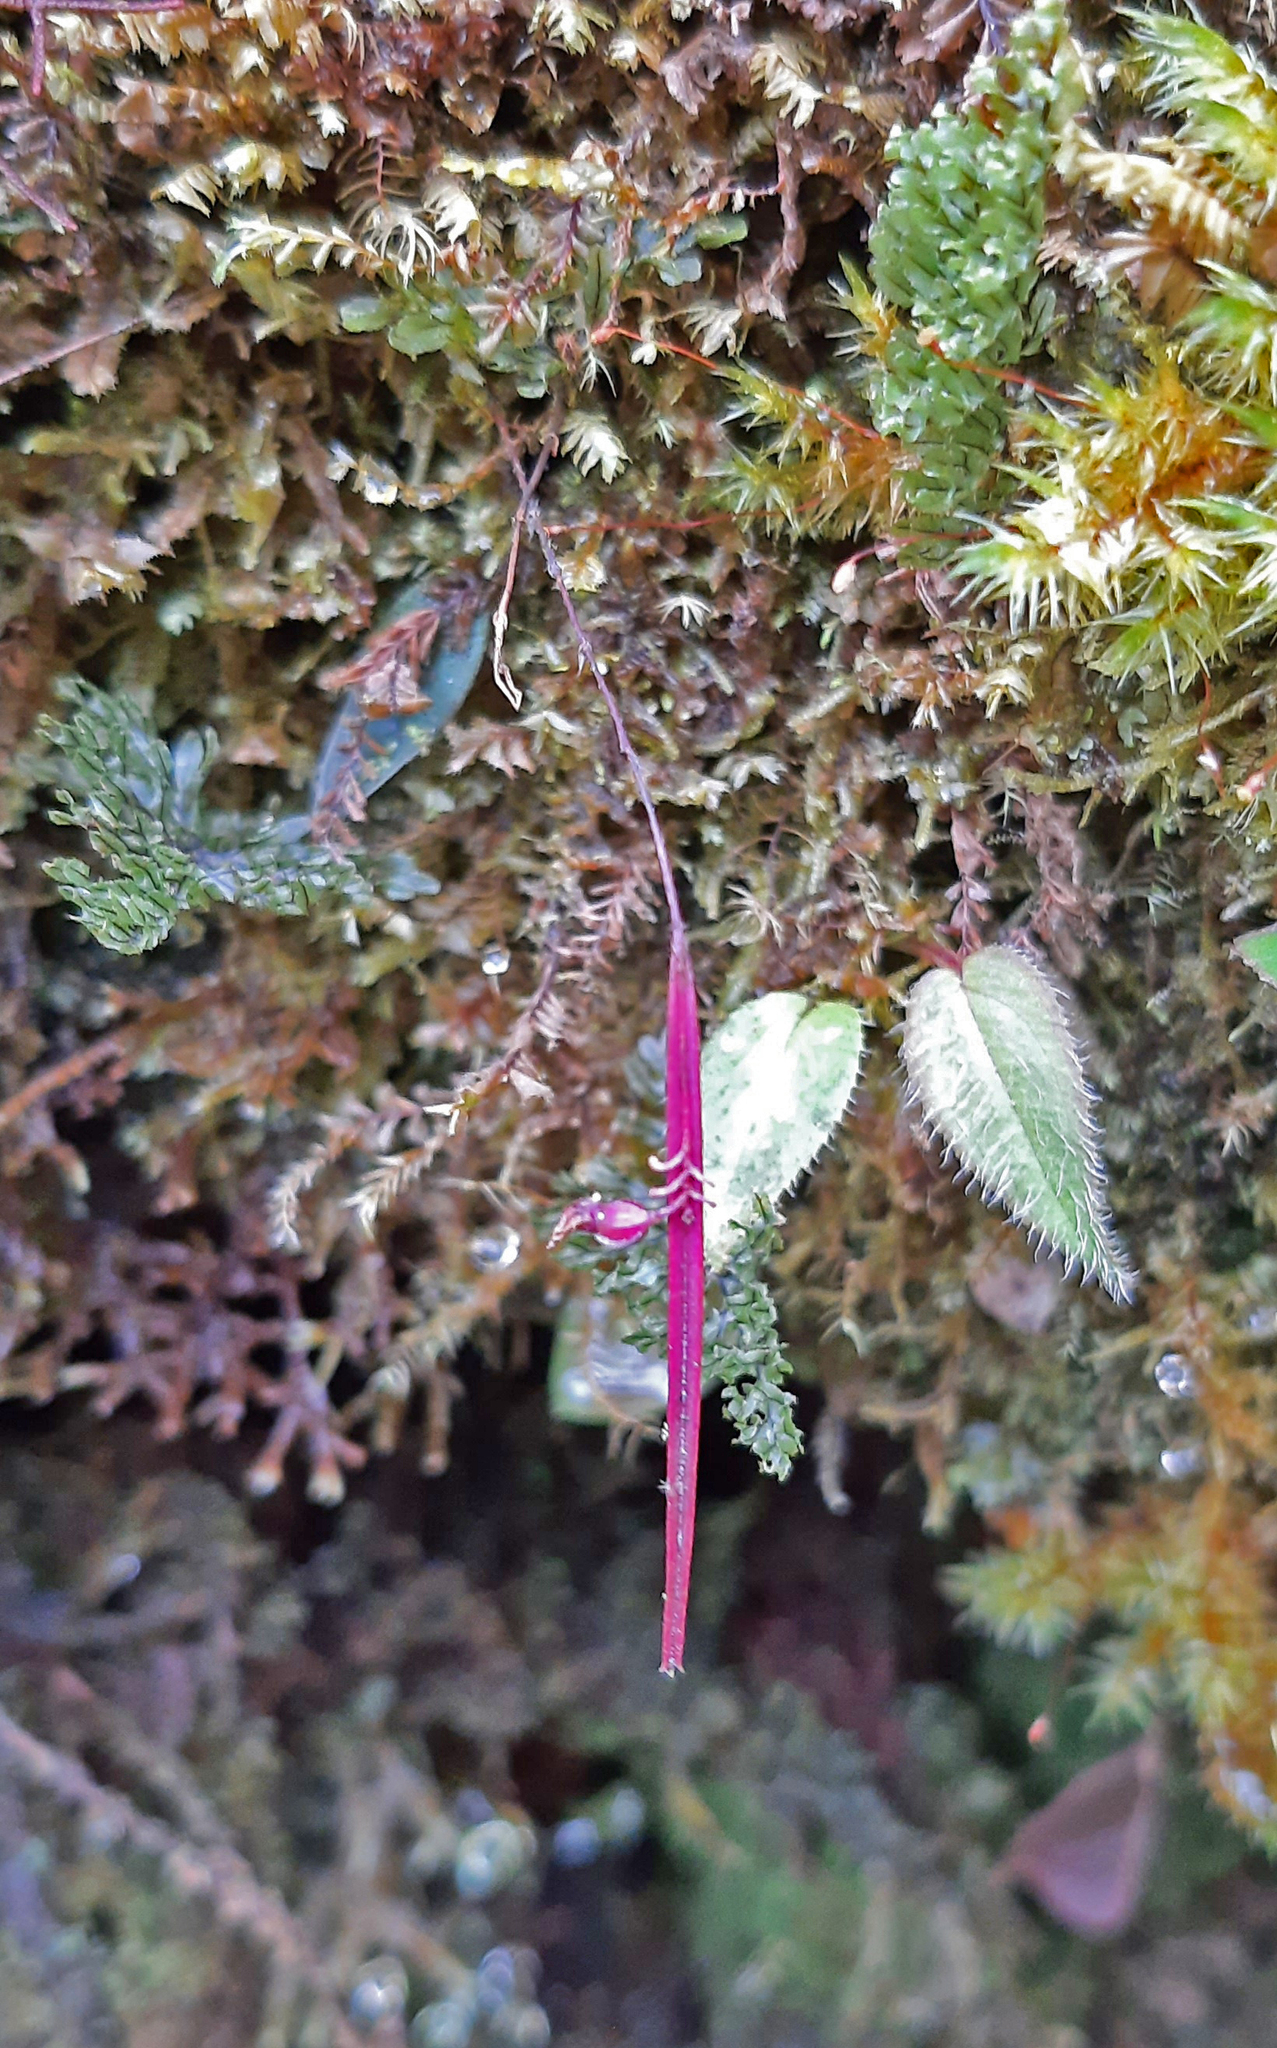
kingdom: Plantae
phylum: Tracheophyta
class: Liliopsida
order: Asparagales
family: Orchidaceae
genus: Lepanthes
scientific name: Lepanthes aciculifolia
